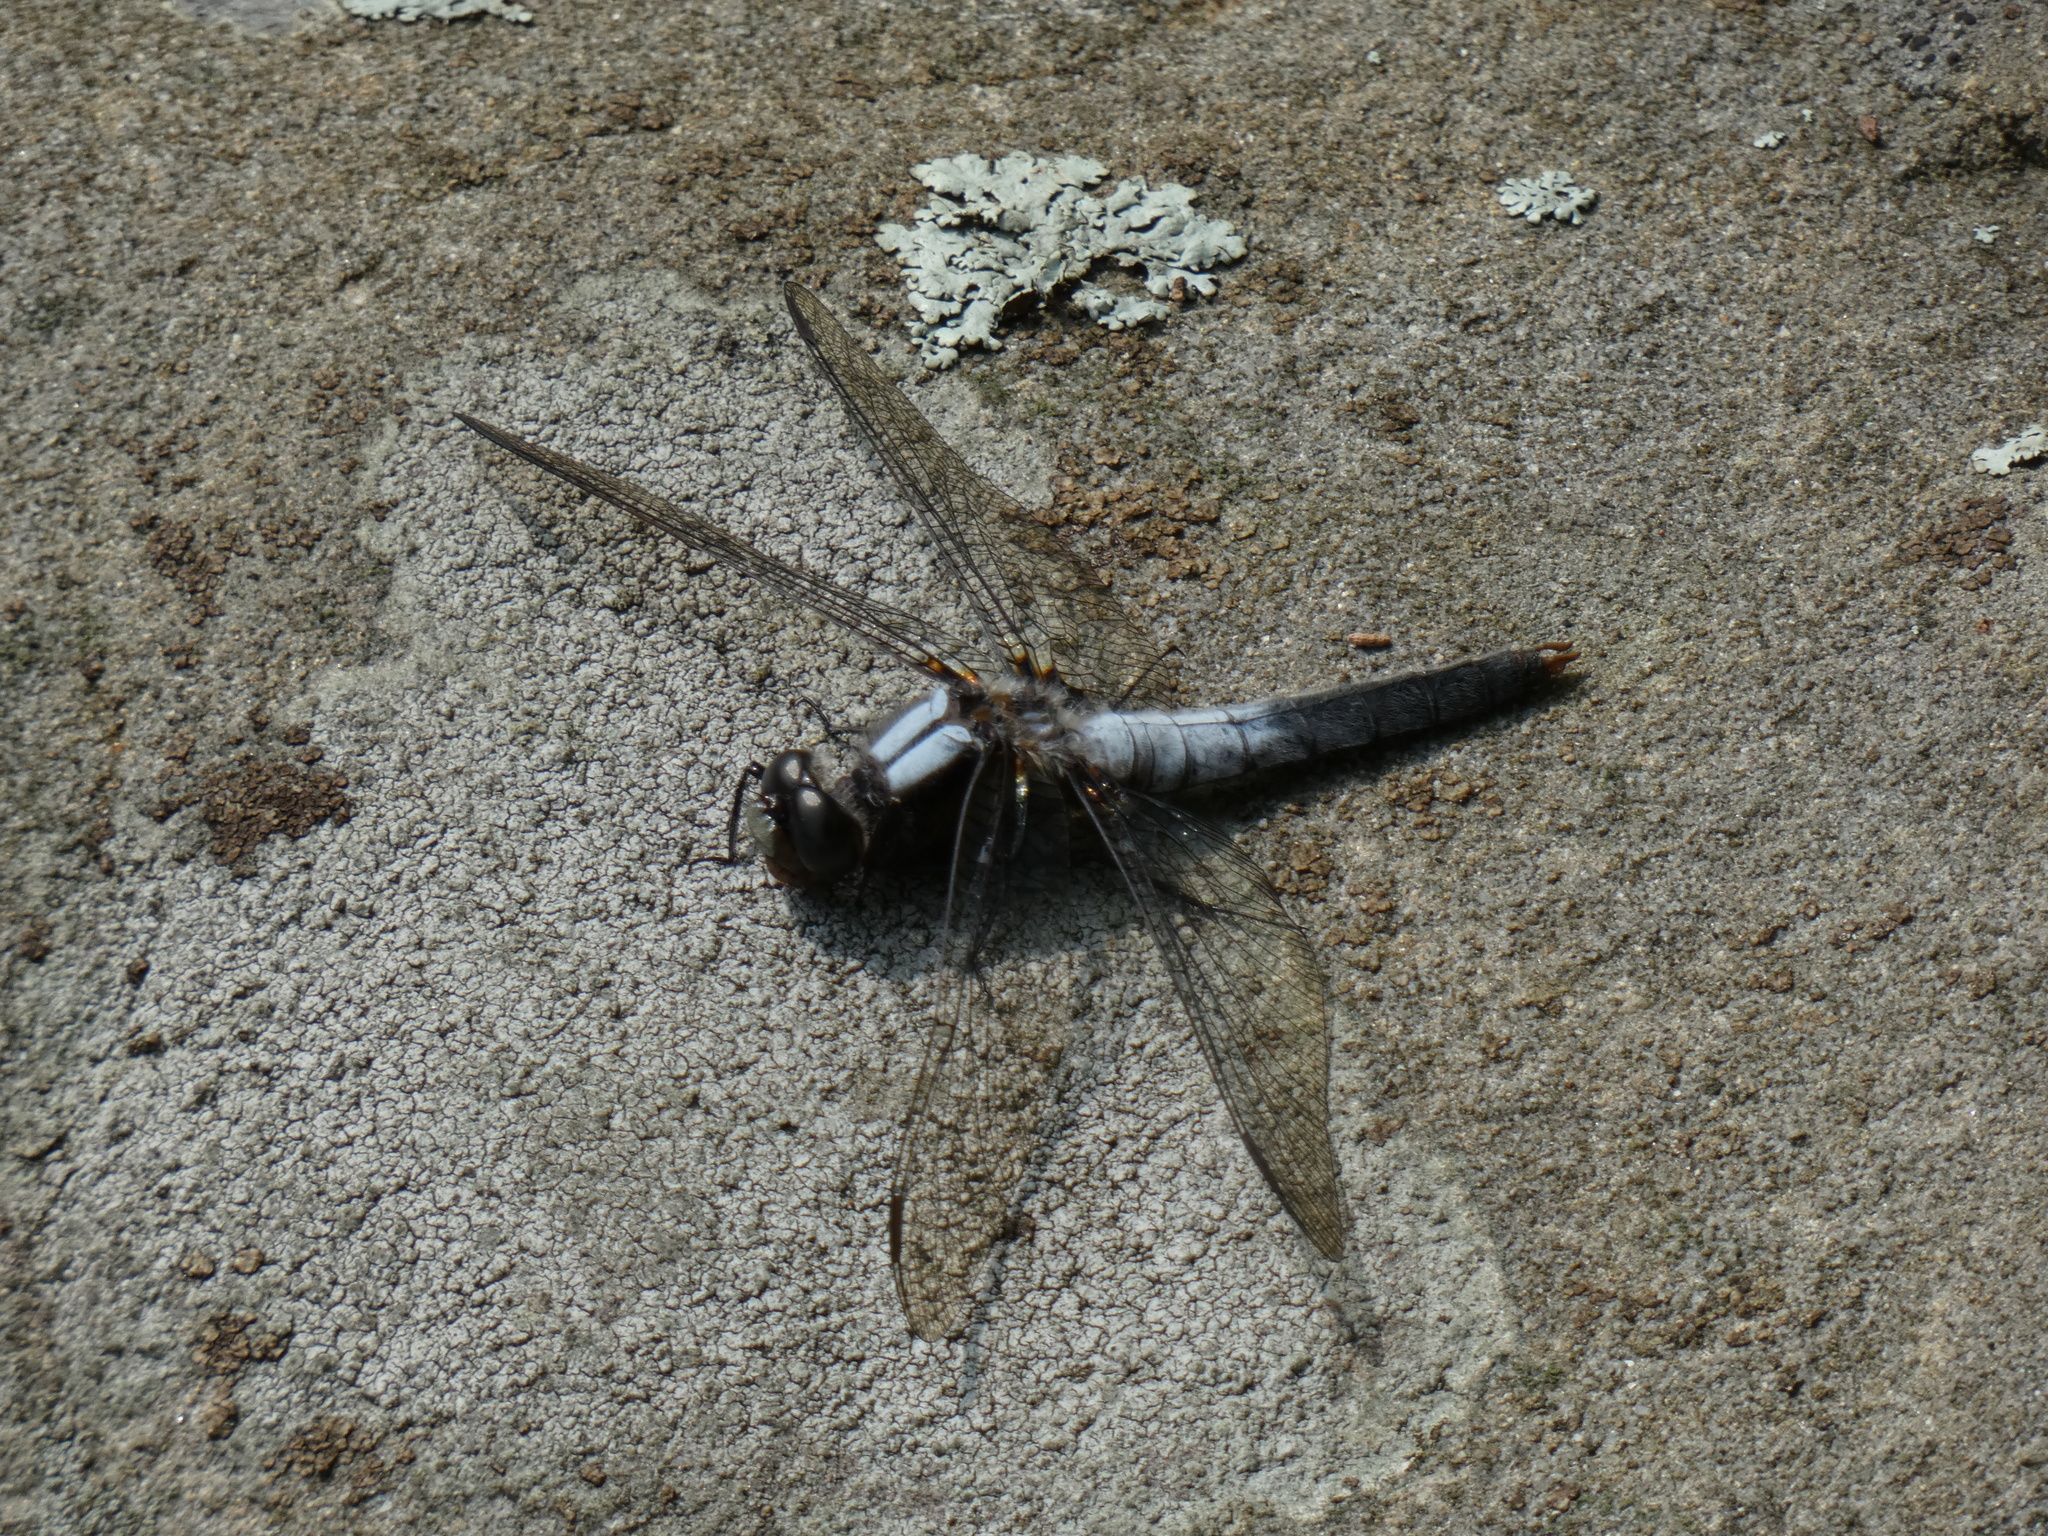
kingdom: Animalia
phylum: Arthropoda
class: Insecta
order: Odonata
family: Libellulidae
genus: Ladona
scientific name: Ladona julia
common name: Chalk-fronted corporal
